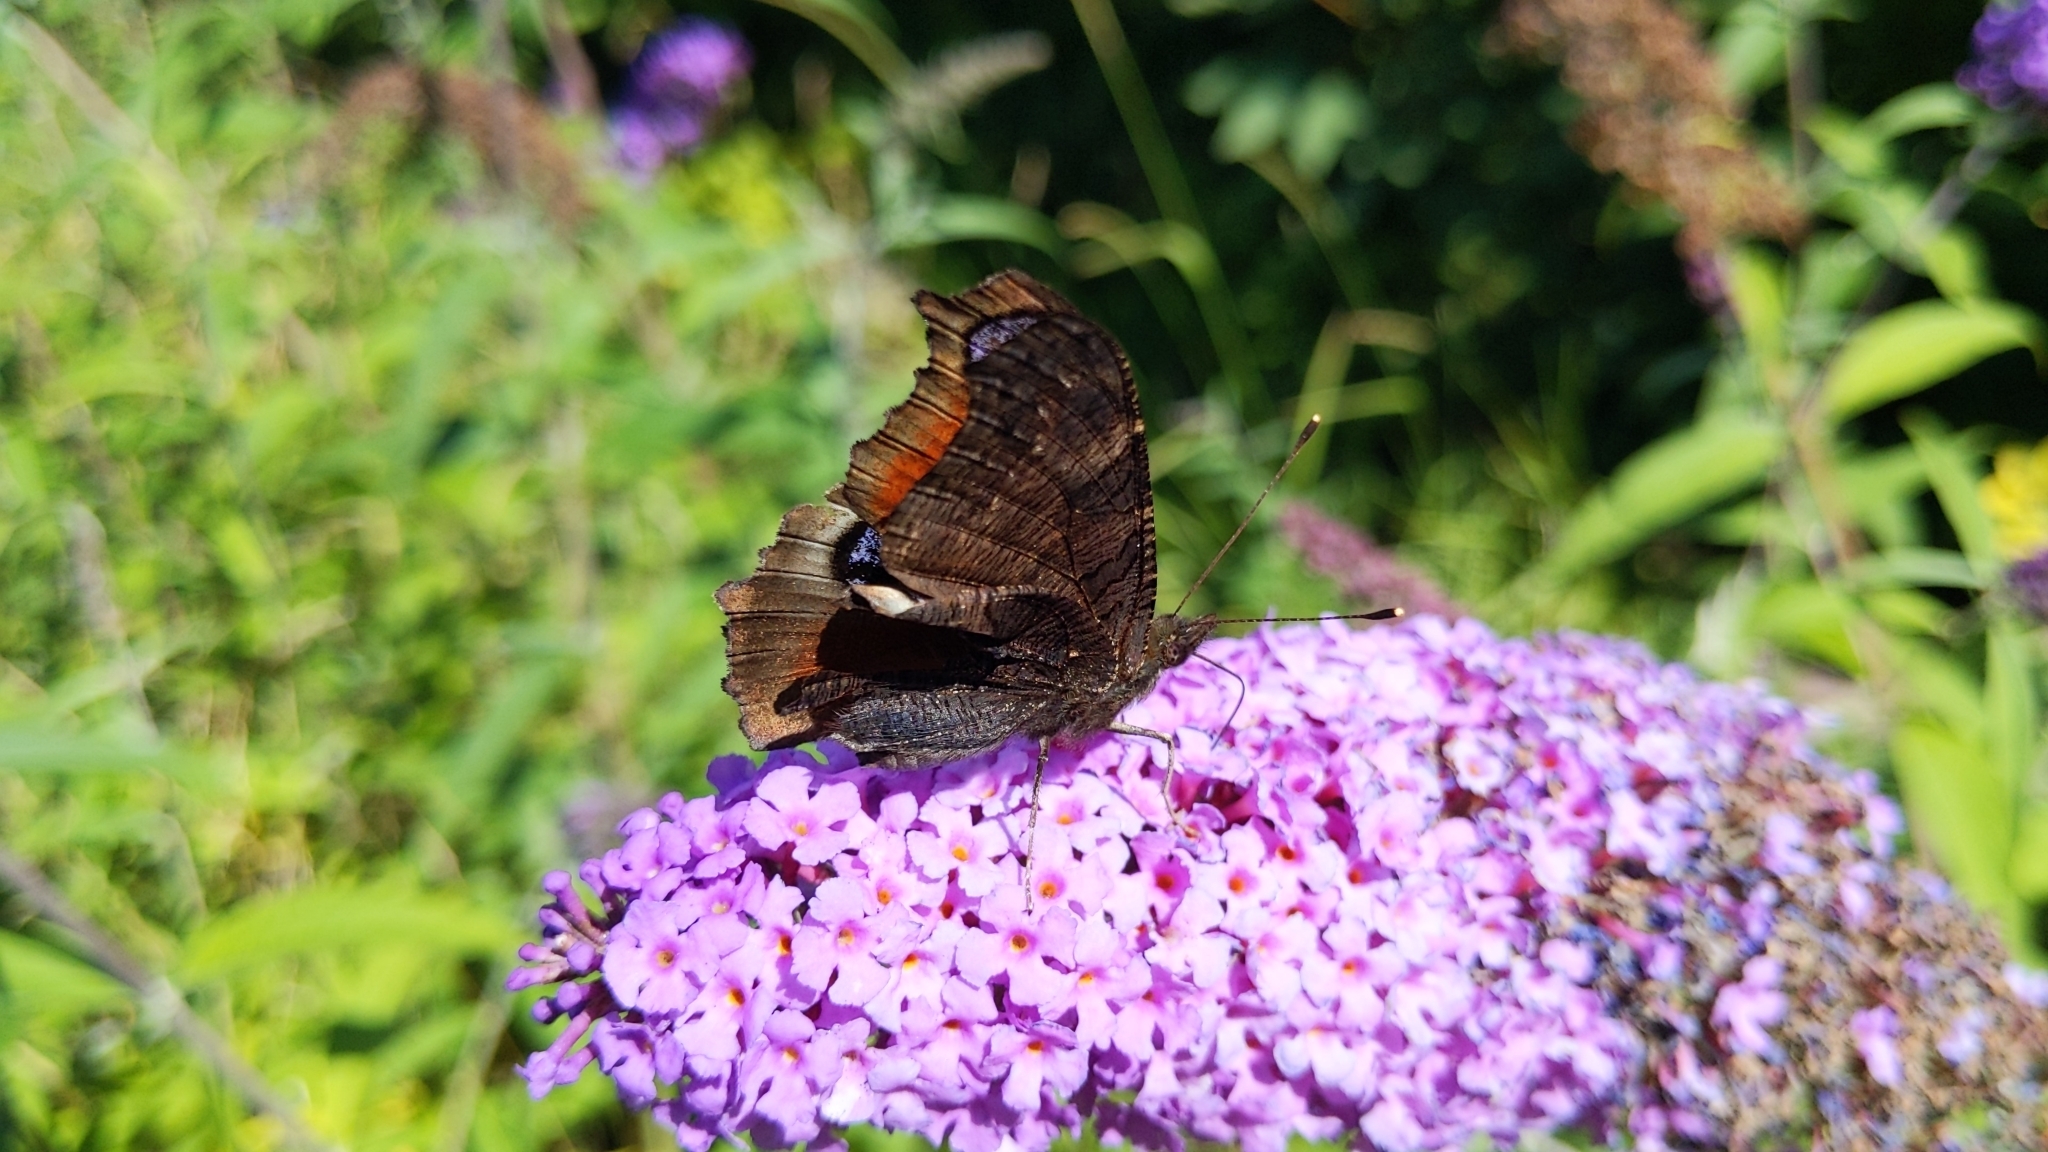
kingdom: Animalia
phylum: Arthropoda
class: Insecta
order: Lepidoptera
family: Nymphalidae
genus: Aglais
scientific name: Aglais io
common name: Peacock
